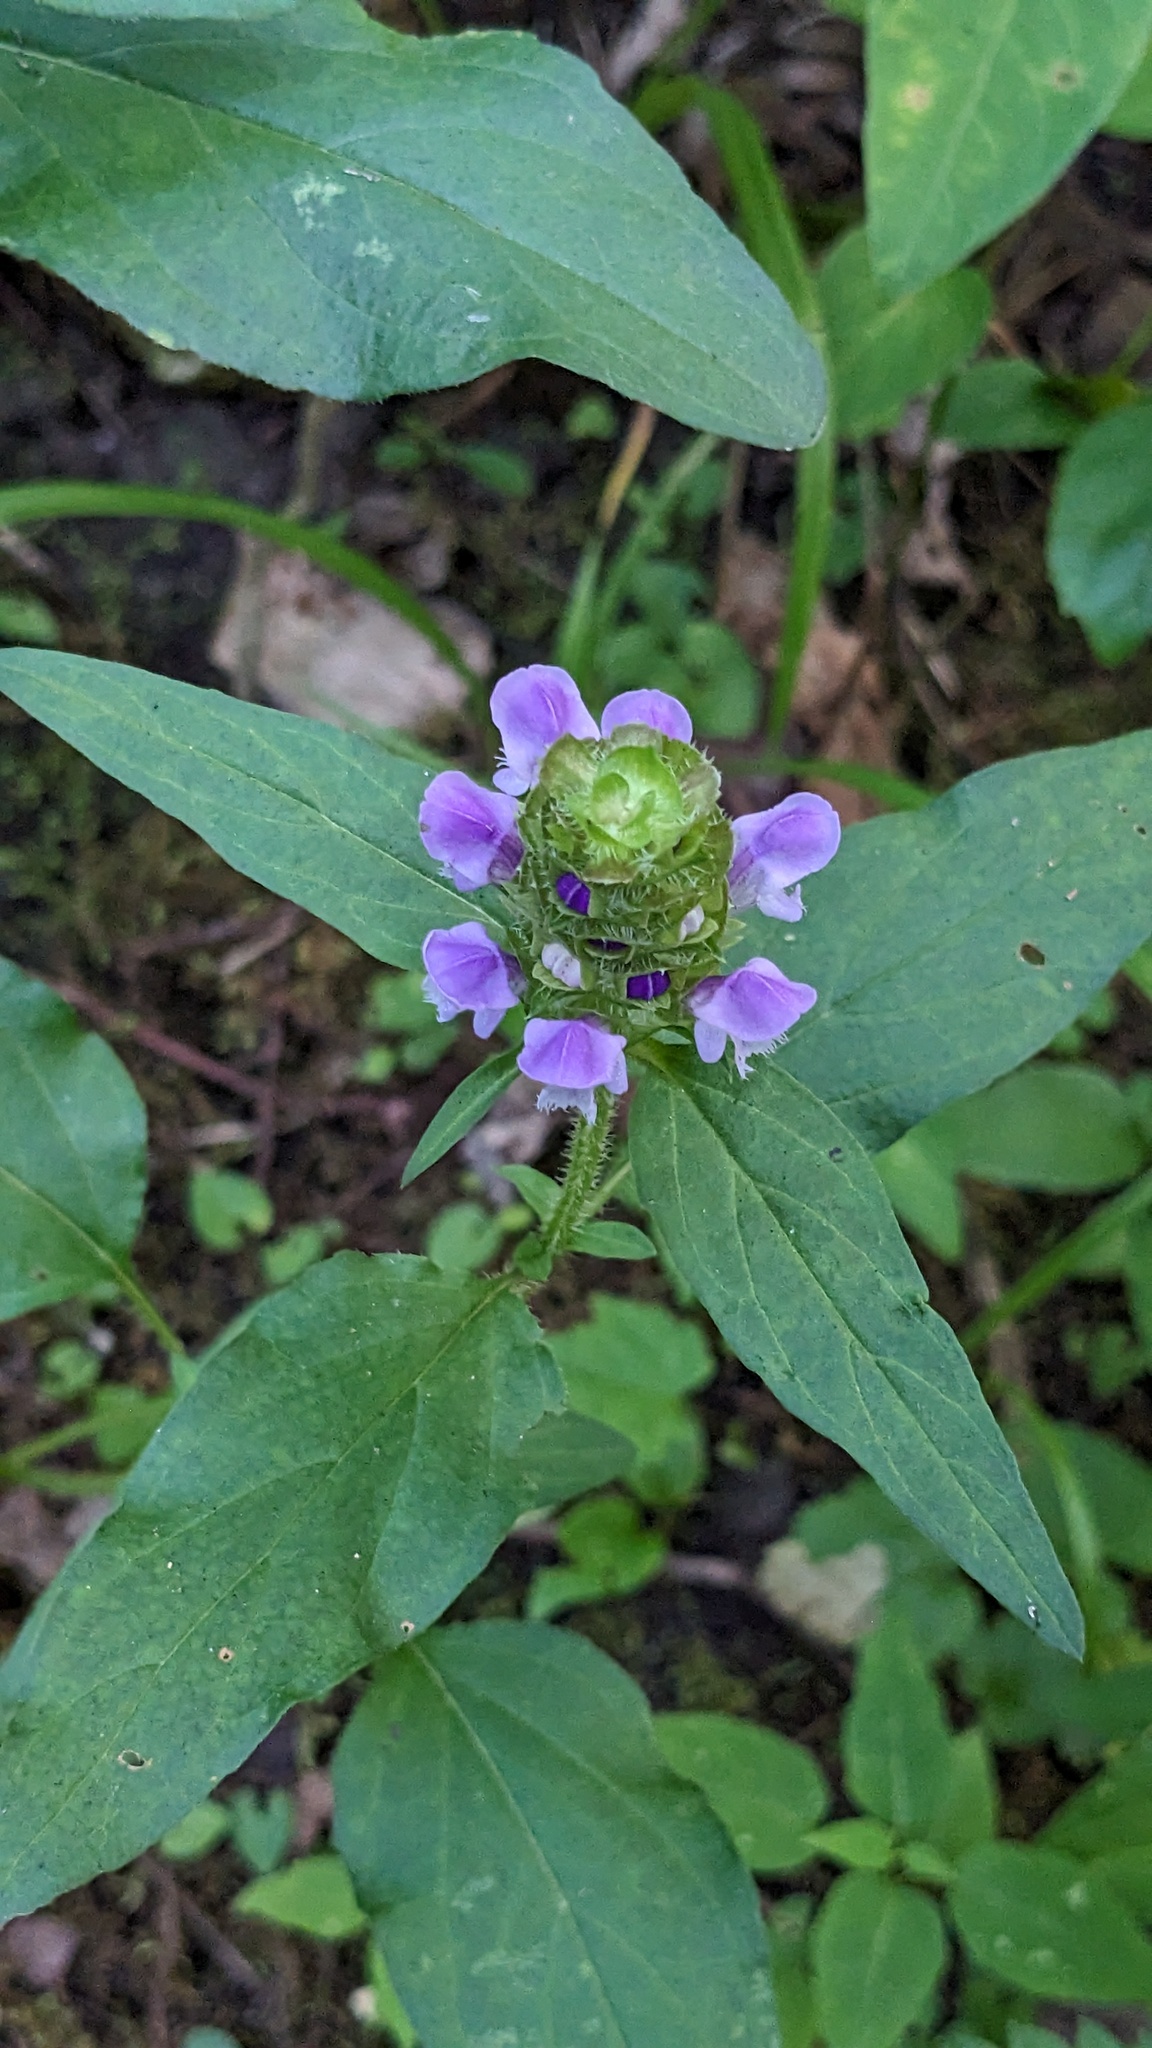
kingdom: Plantae
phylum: Tracheophyta
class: Magnoliopsida
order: Lamiales
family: Lamiaceae
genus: Prunella
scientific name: Prunella vulgaris
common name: Heal-all
